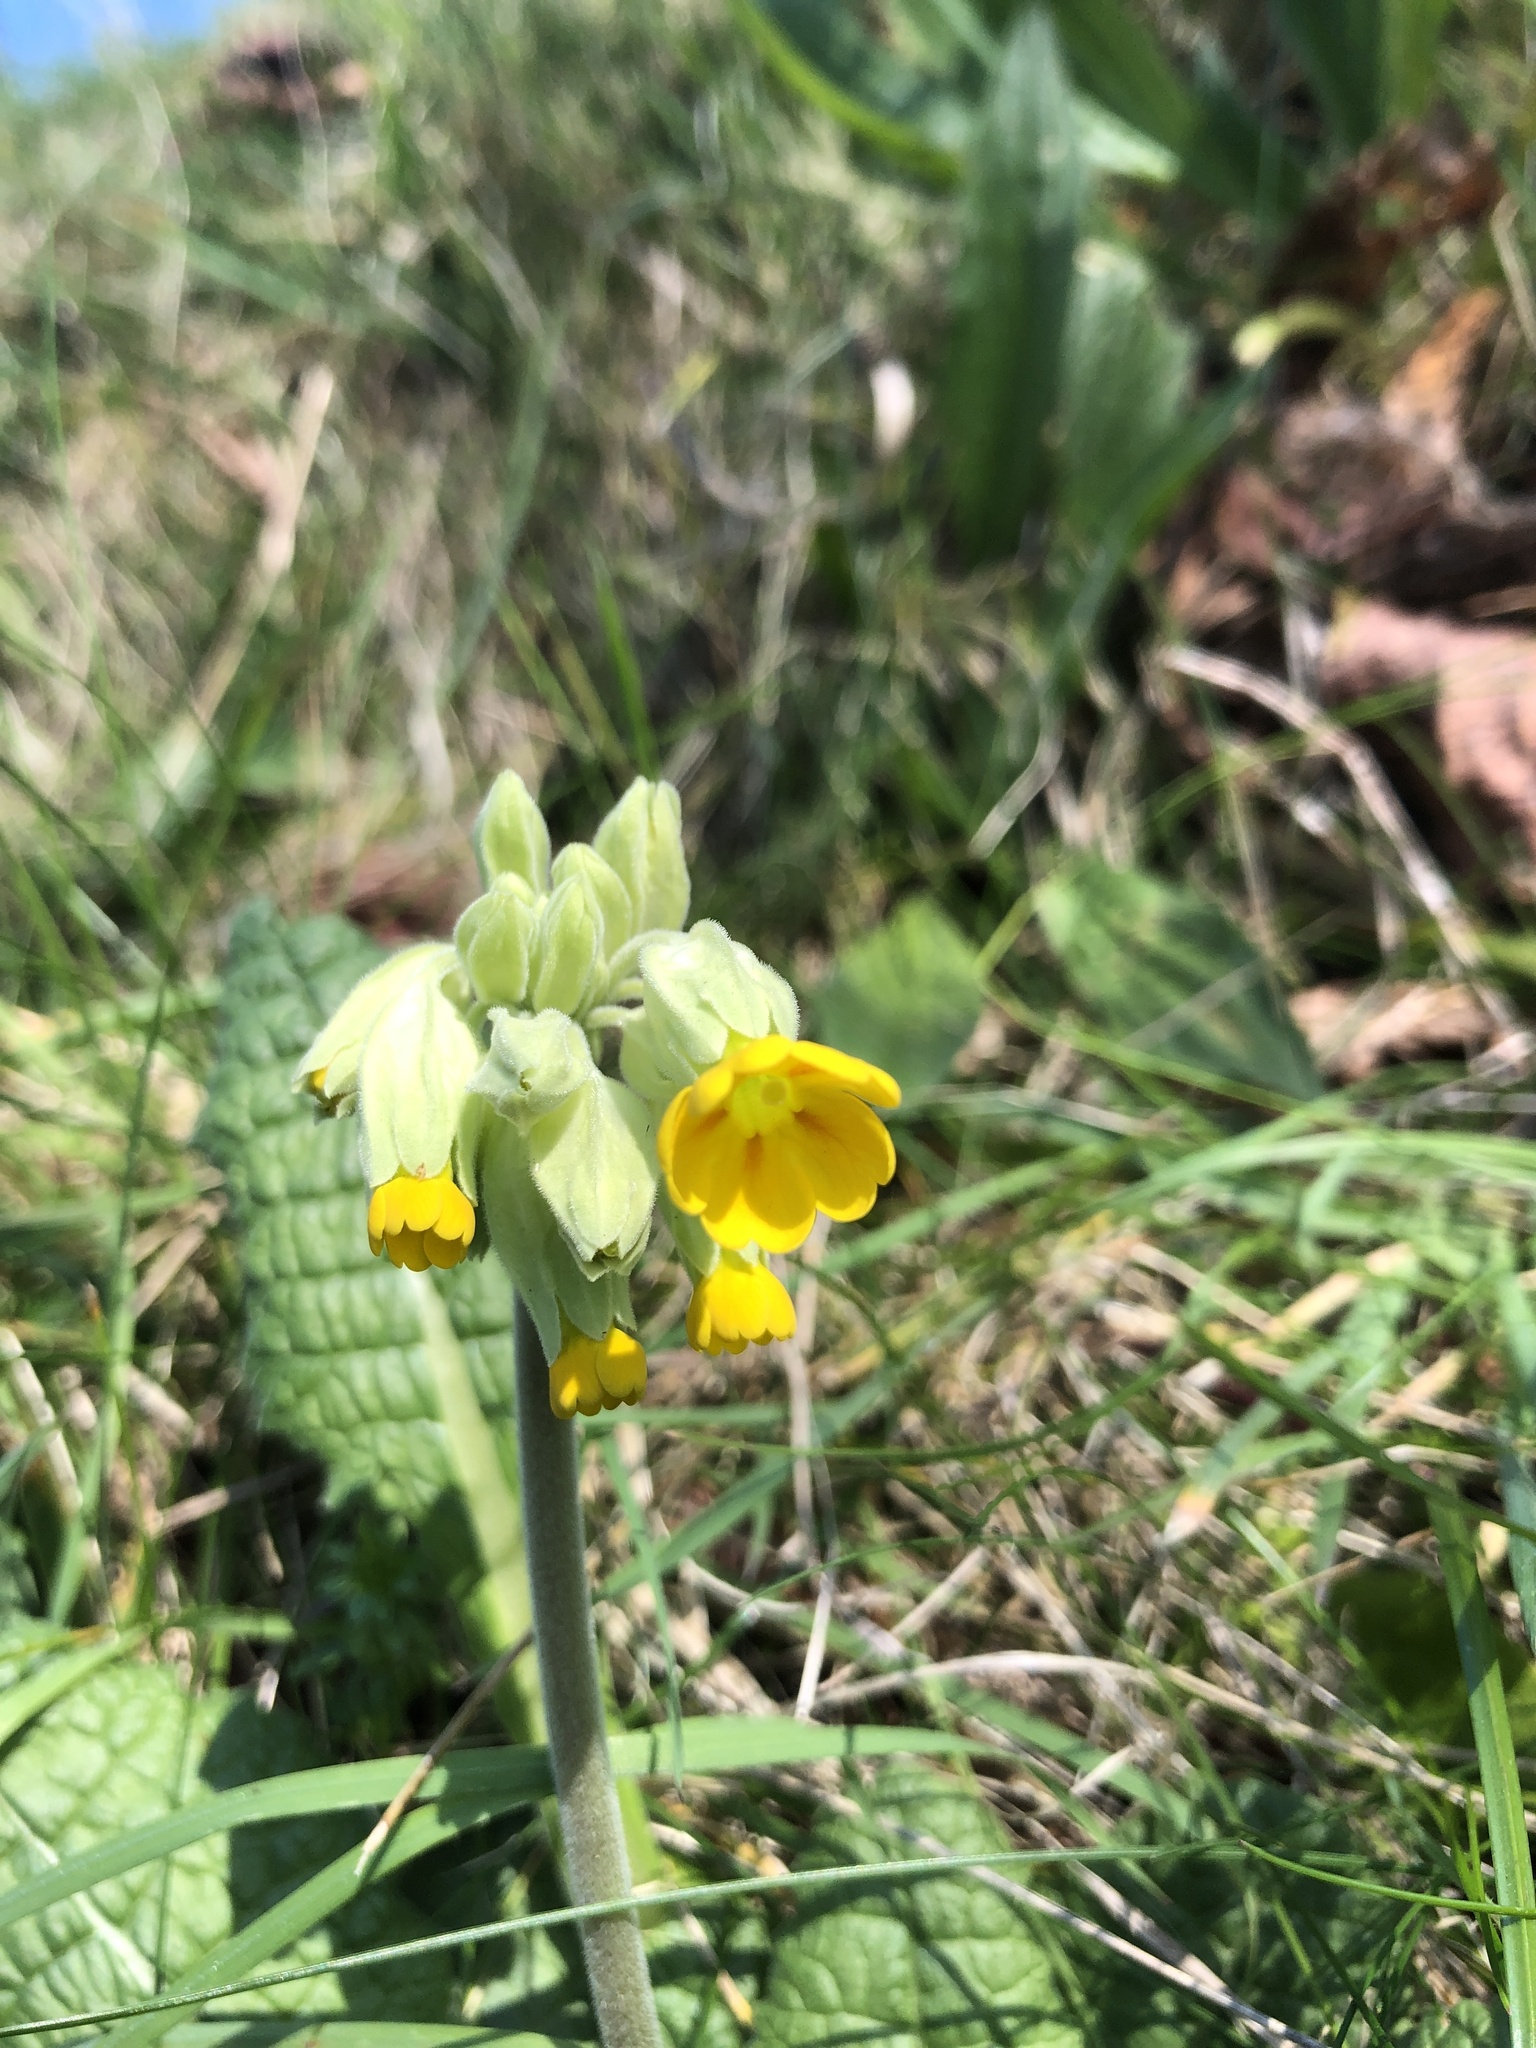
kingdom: Plantae
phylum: Tracheophyta
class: Magnoliopsida
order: Ericales
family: Primulaceae
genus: Primula
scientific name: Primula veris
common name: Cowslip
